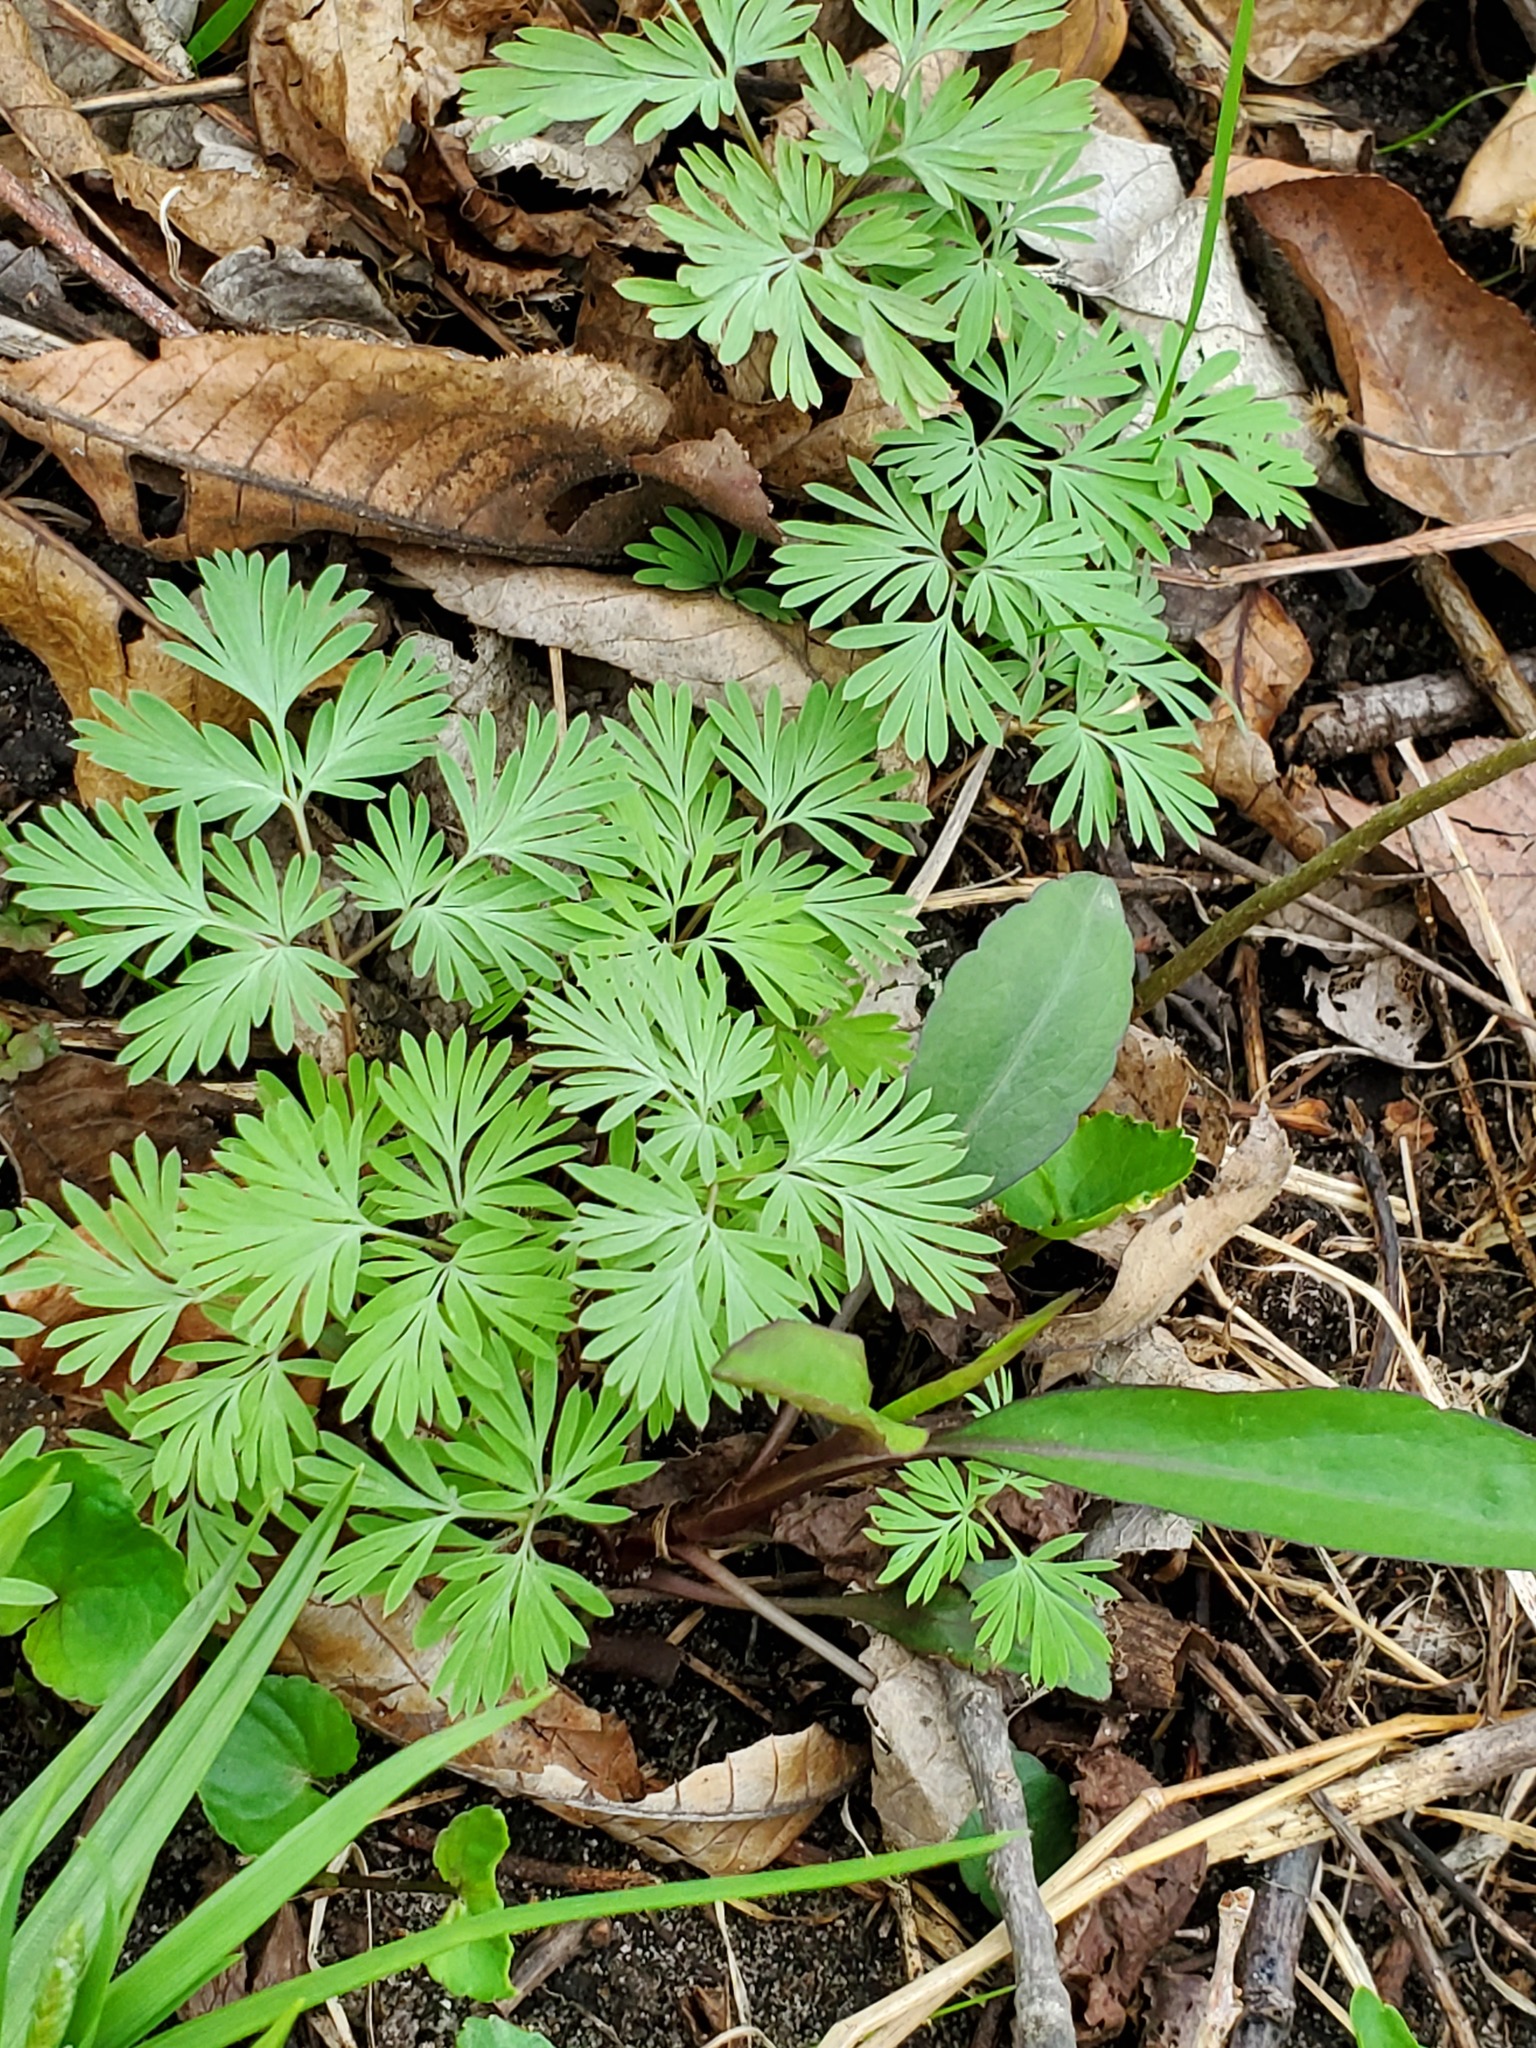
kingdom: Plantae
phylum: Tracheophyta
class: Magnoliopsida
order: Ranunculales
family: Papaveraceae
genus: Dicentra
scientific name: Dicentra cucullaria
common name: Dutchman's breeches
